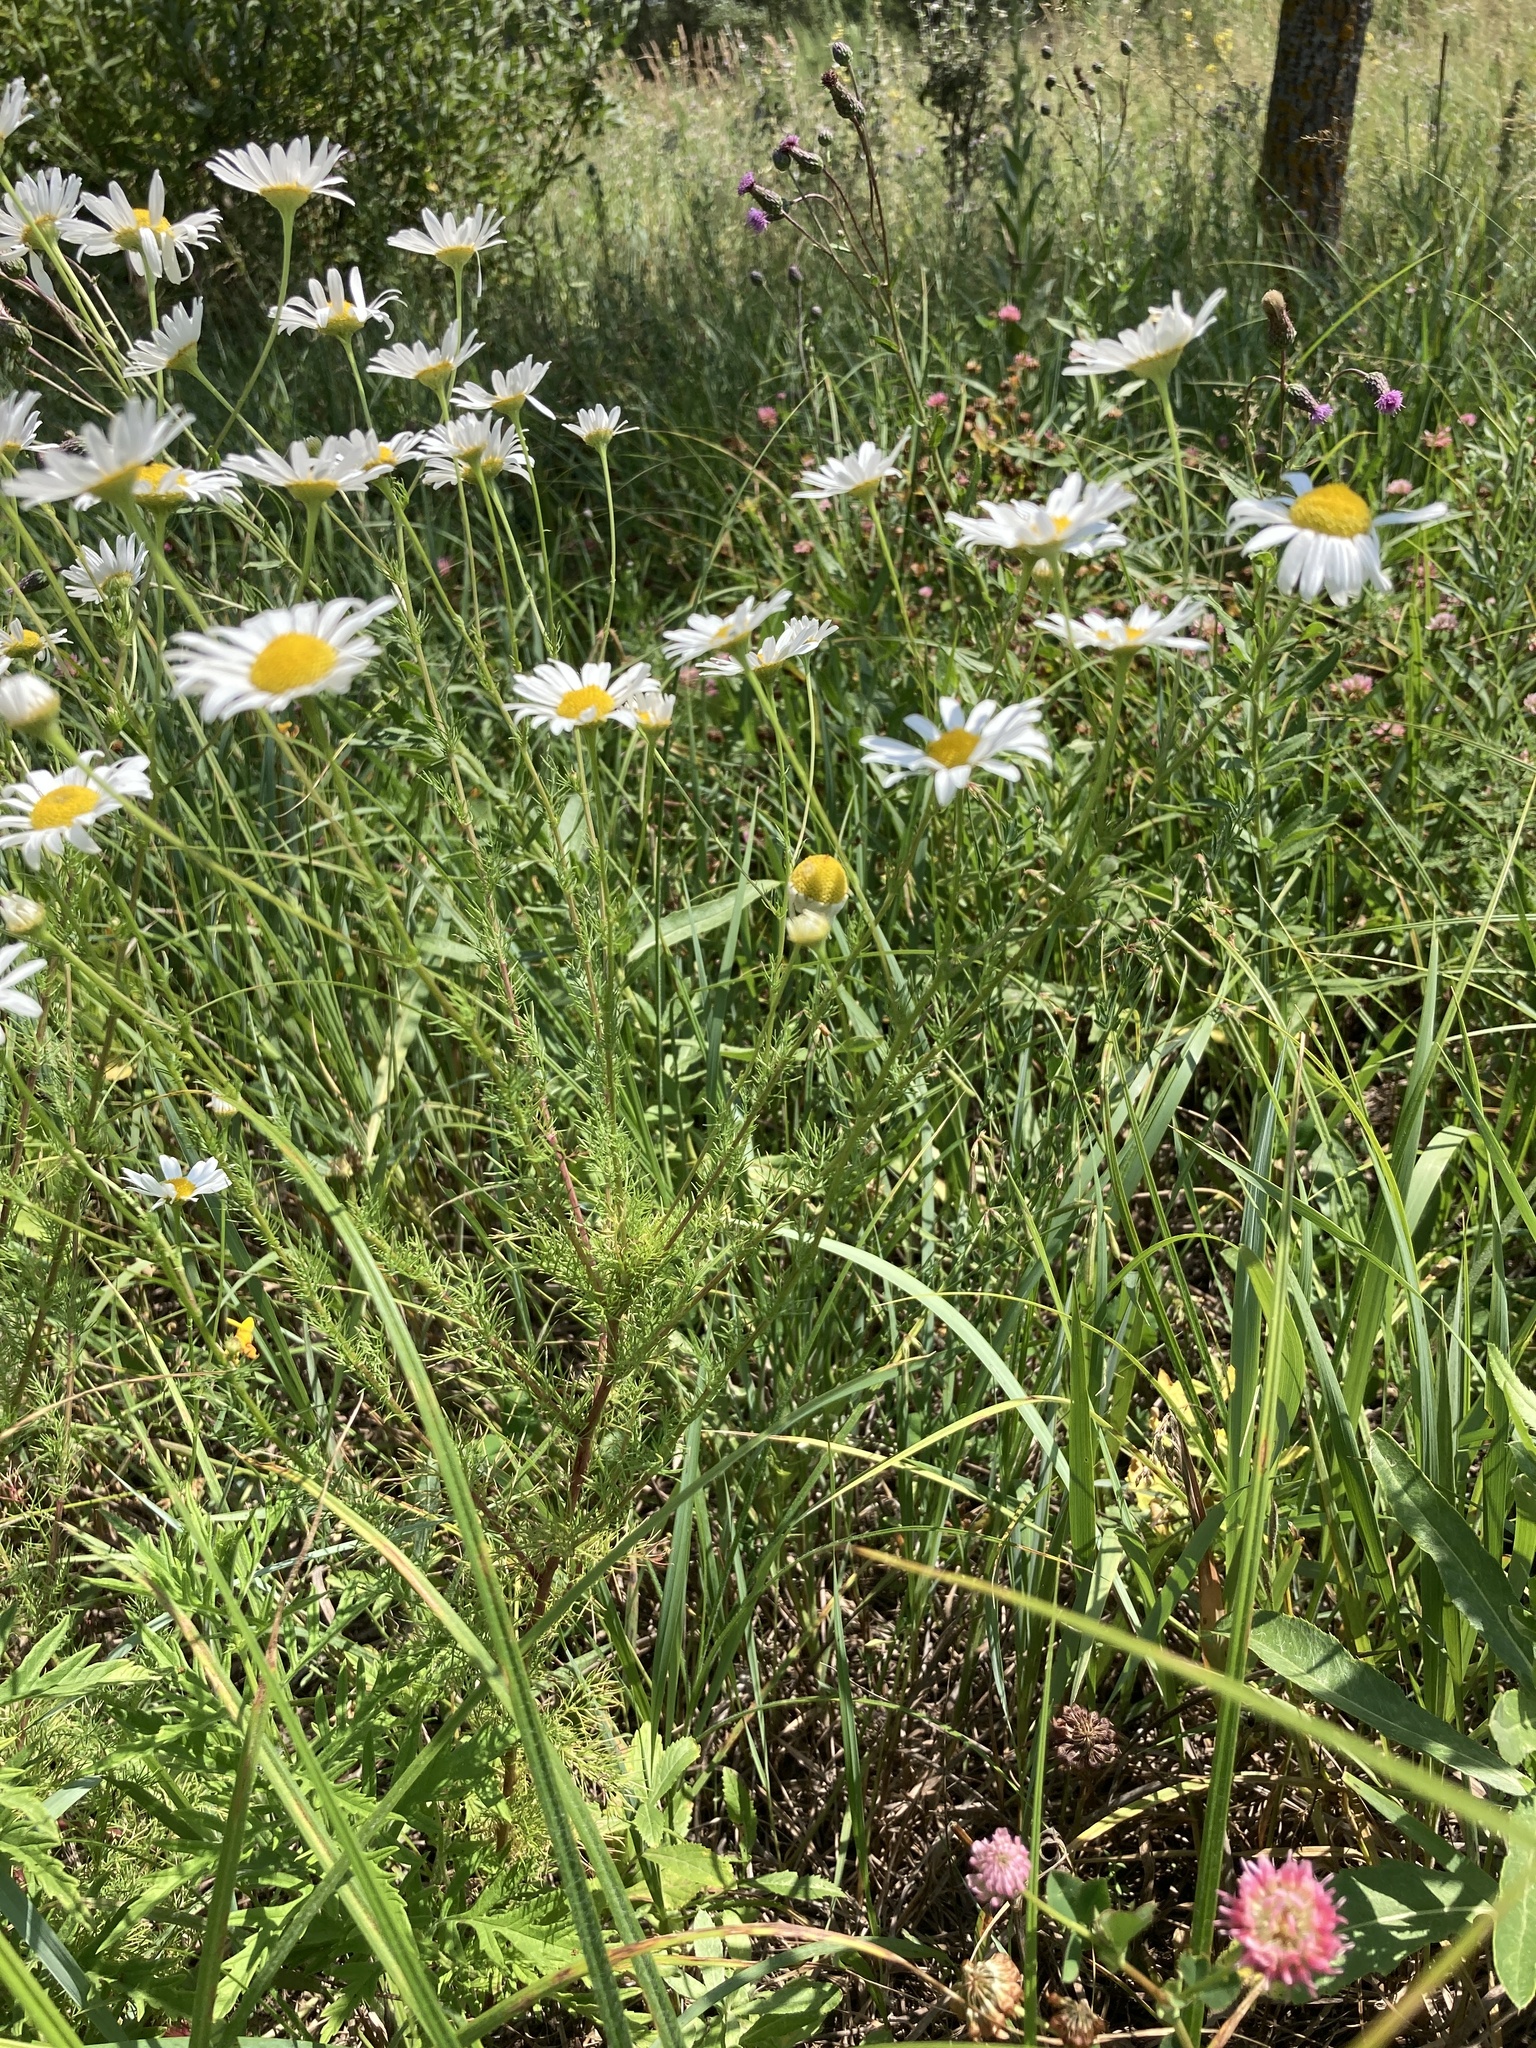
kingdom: Plantae
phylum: Tracheophyta
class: Magnoliopsida
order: Asterales
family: Asteraceae
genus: Tripleurospermum
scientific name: Tripleurospermum inodorum
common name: Scentless mayweed
